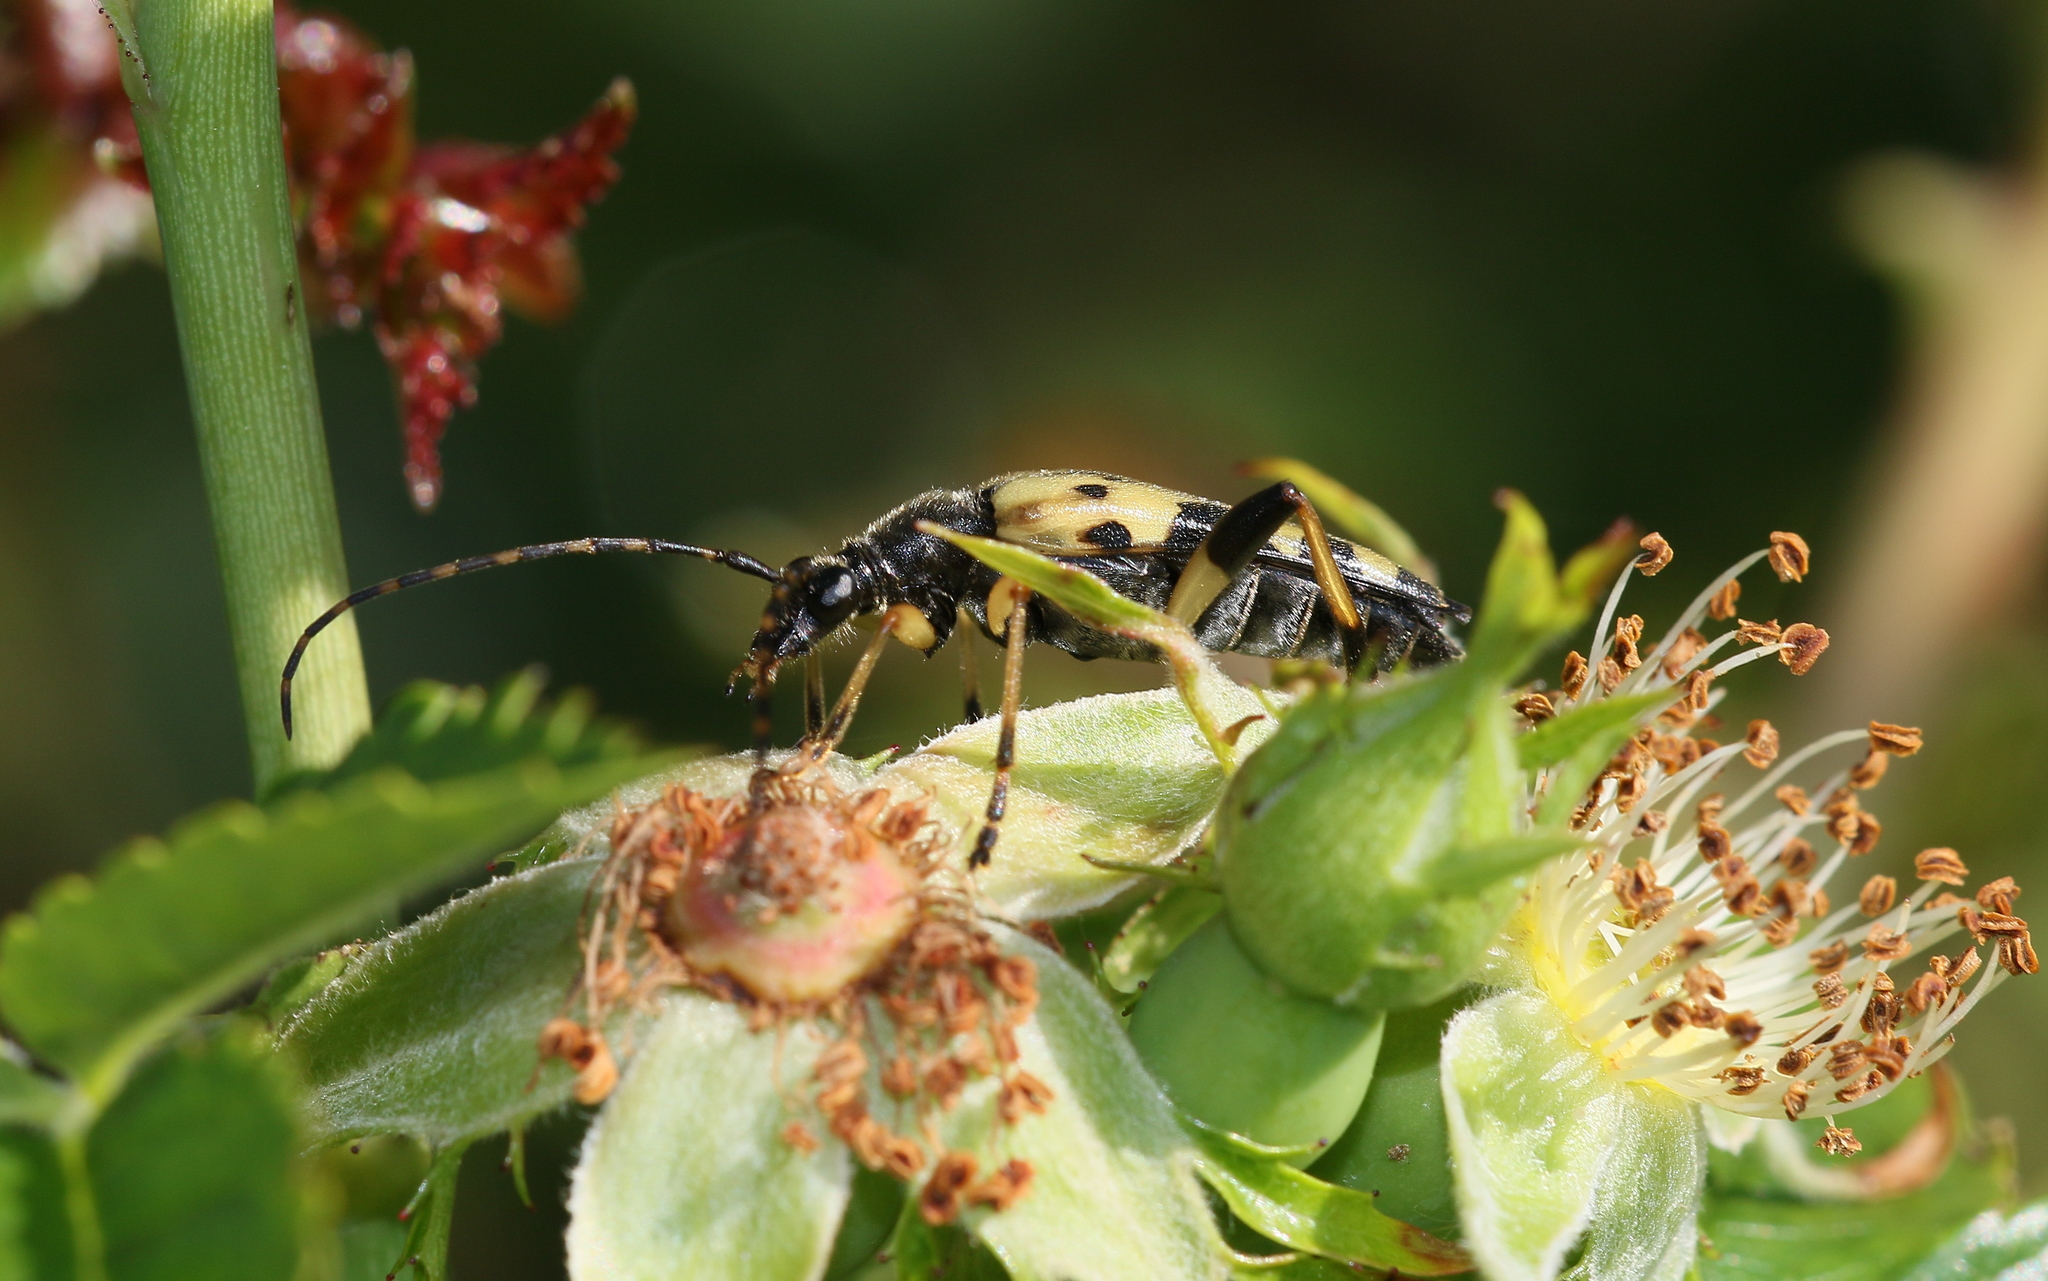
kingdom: Animalia
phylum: Arthropoda
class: Insecta
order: Coleoptera
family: Cerambycidae
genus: Rutpela
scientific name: Rutpela maculata
